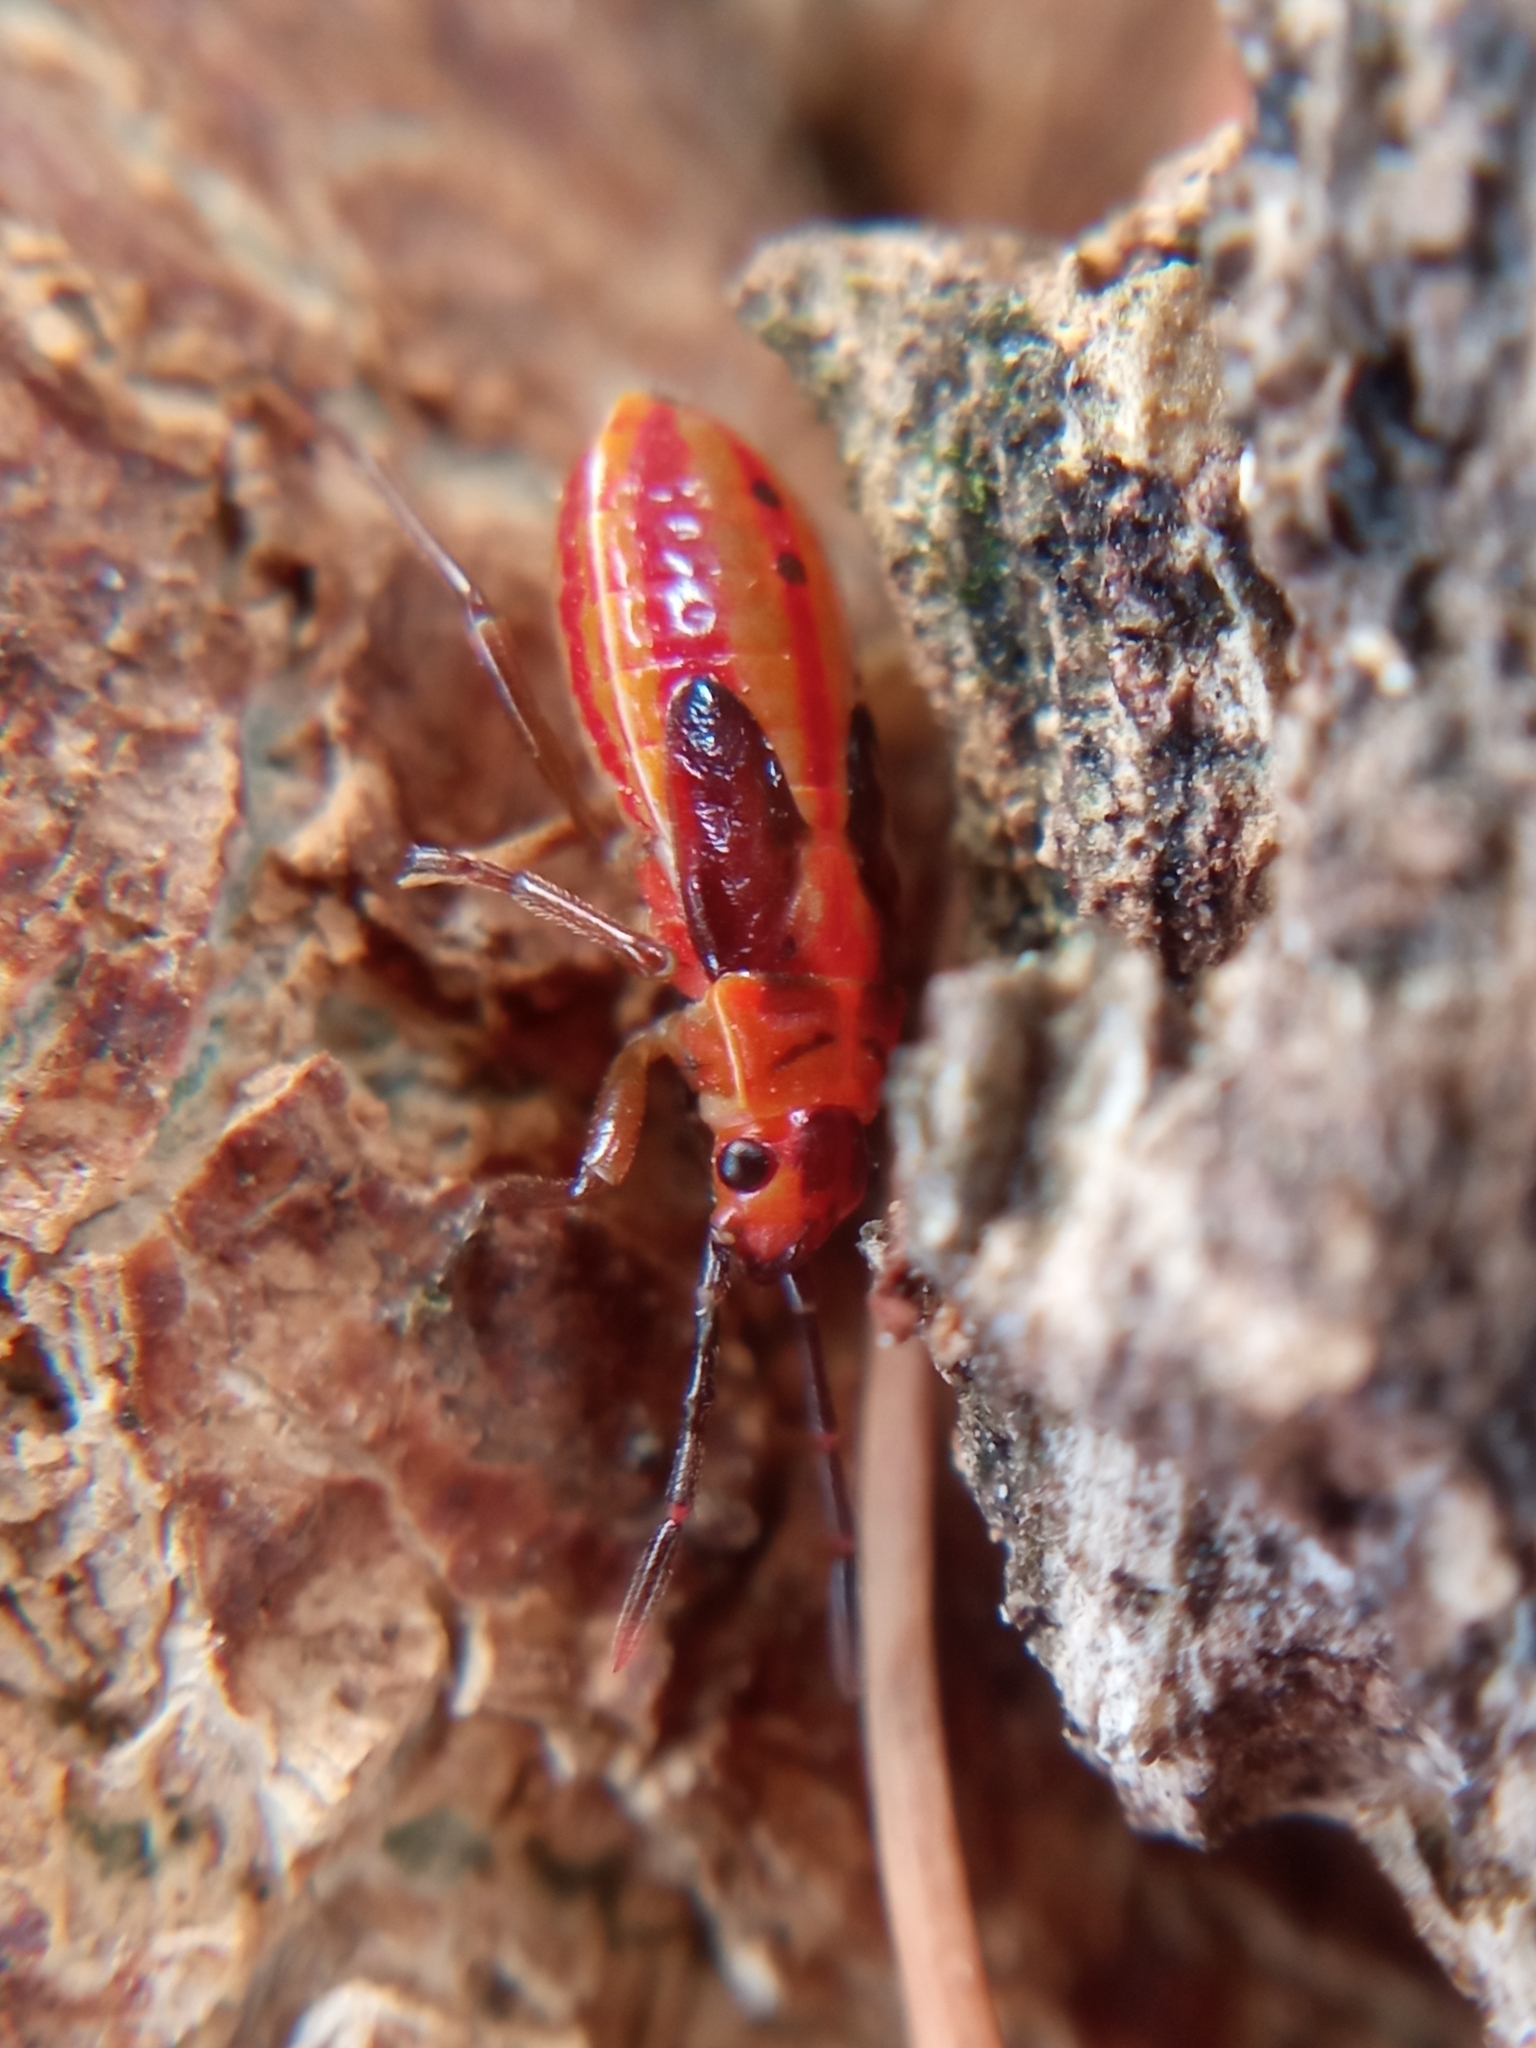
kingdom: Animalia
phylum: Arthropoda
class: Insecta
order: Hemiptera
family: Lygaeidae
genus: Melanocoryphus
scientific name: Melanocoryphus albomaculatus
